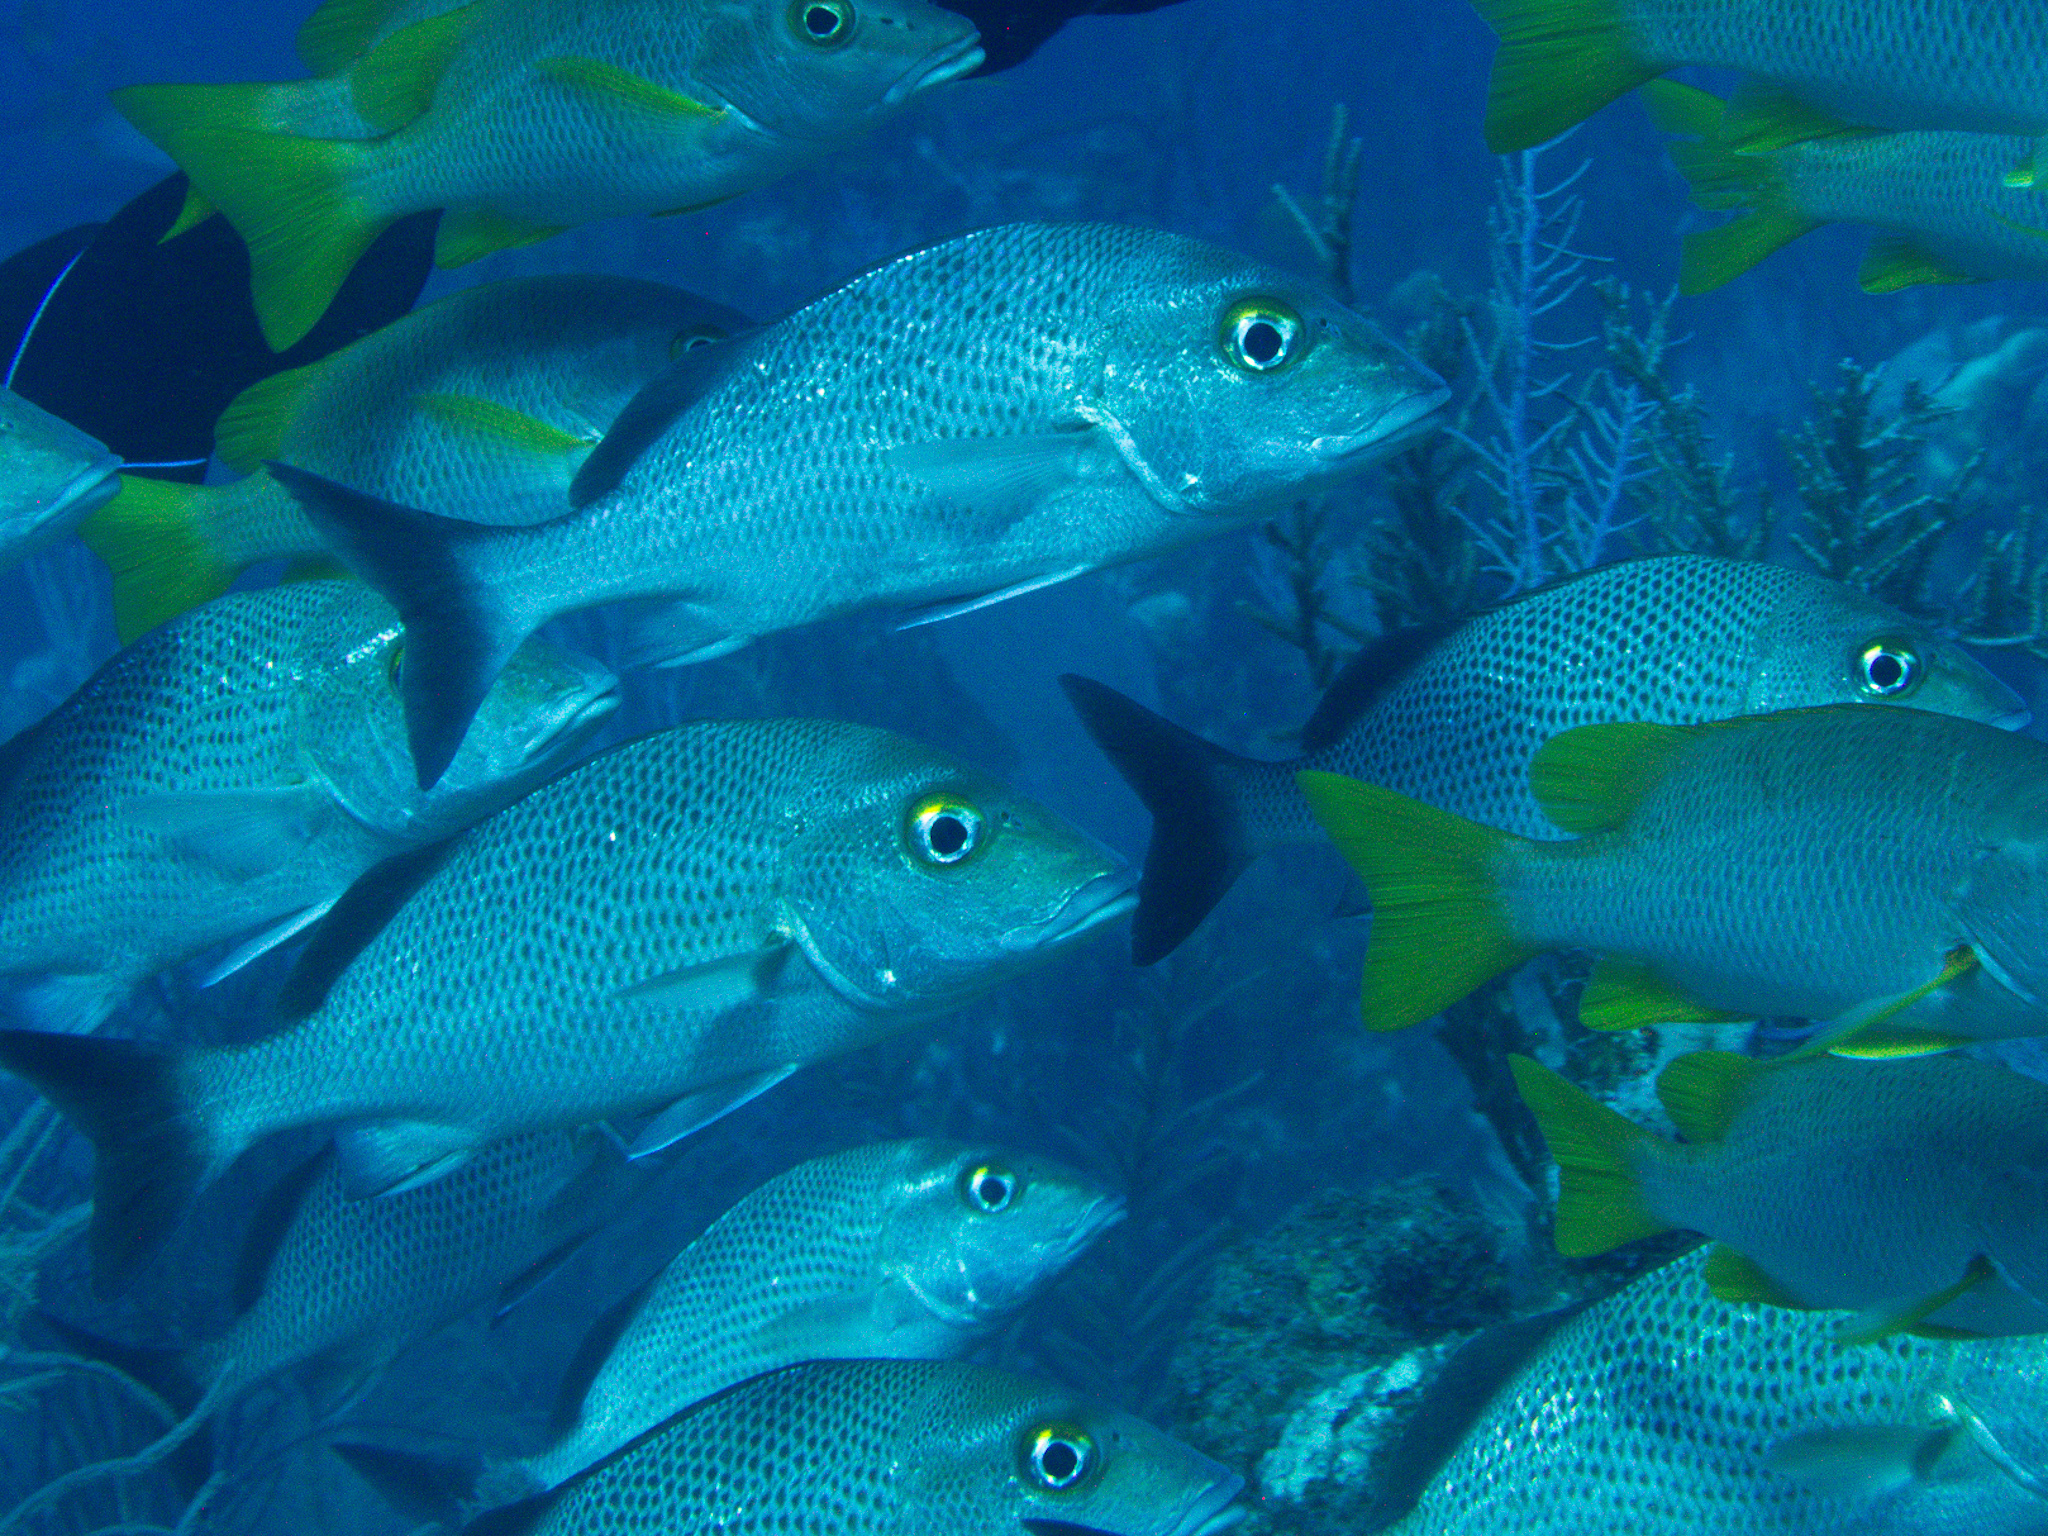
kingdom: Animalia
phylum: Chordata
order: Perciformes
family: Haemulidae
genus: Haemulon
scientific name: Haemulon parra
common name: Sailor's choice
